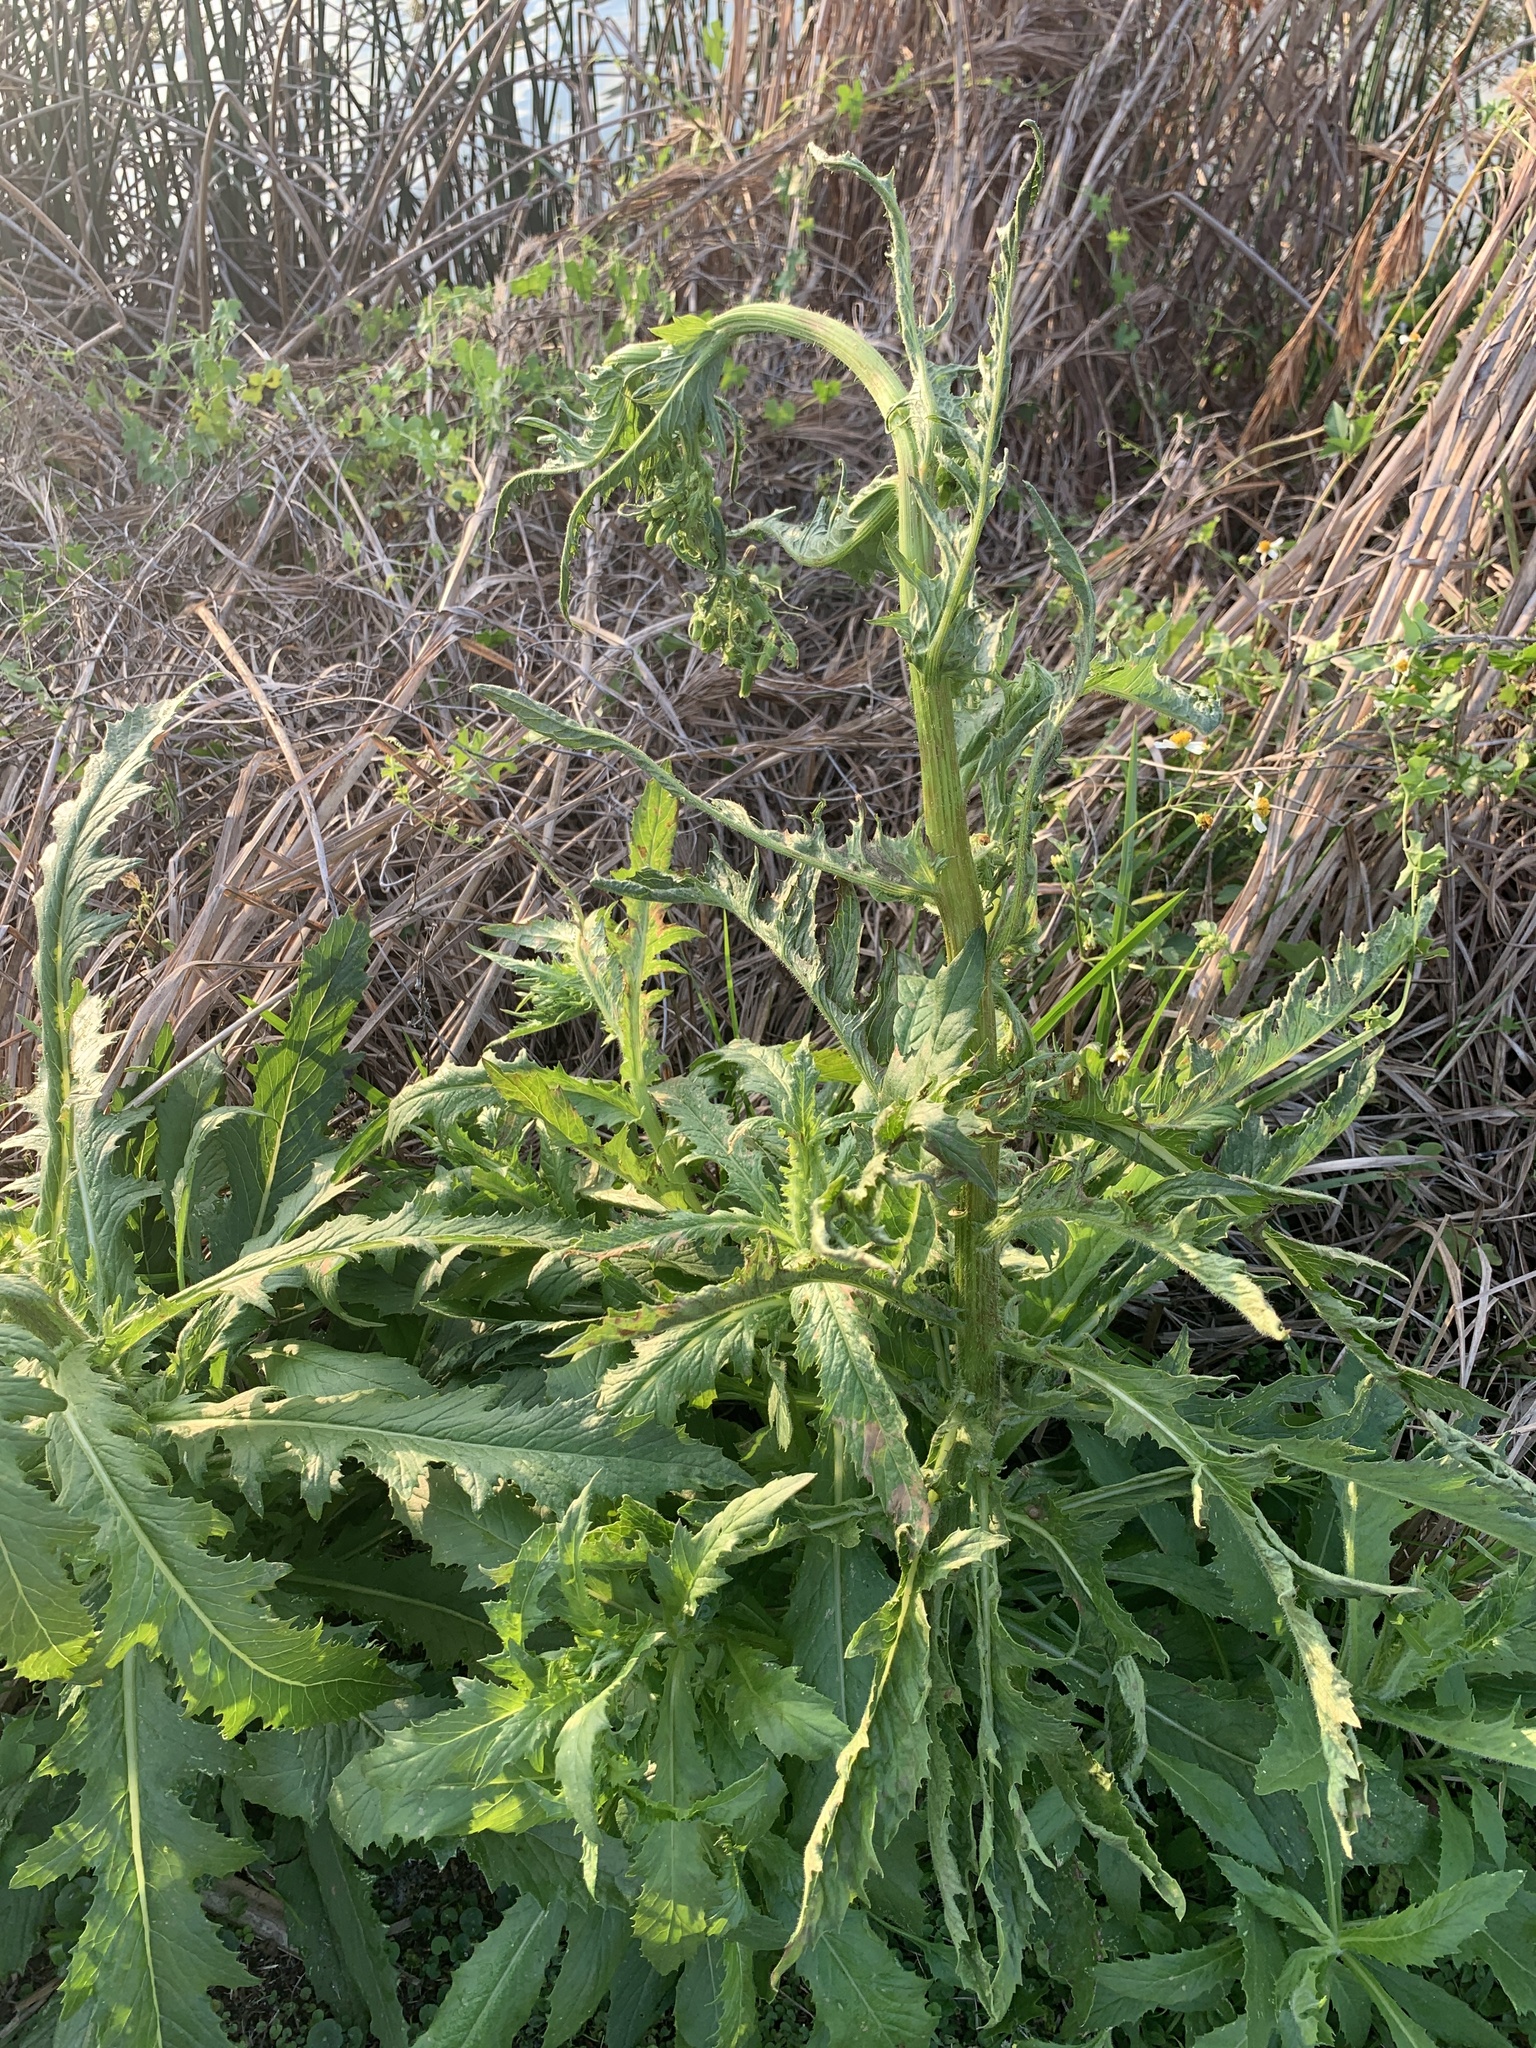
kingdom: Plantae
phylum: Tracheophyta
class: Magnoliopsida
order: Asterales
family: Asteraceae
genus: Erechtites
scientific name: Erechtites hieraciifolius
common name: American burnweed
